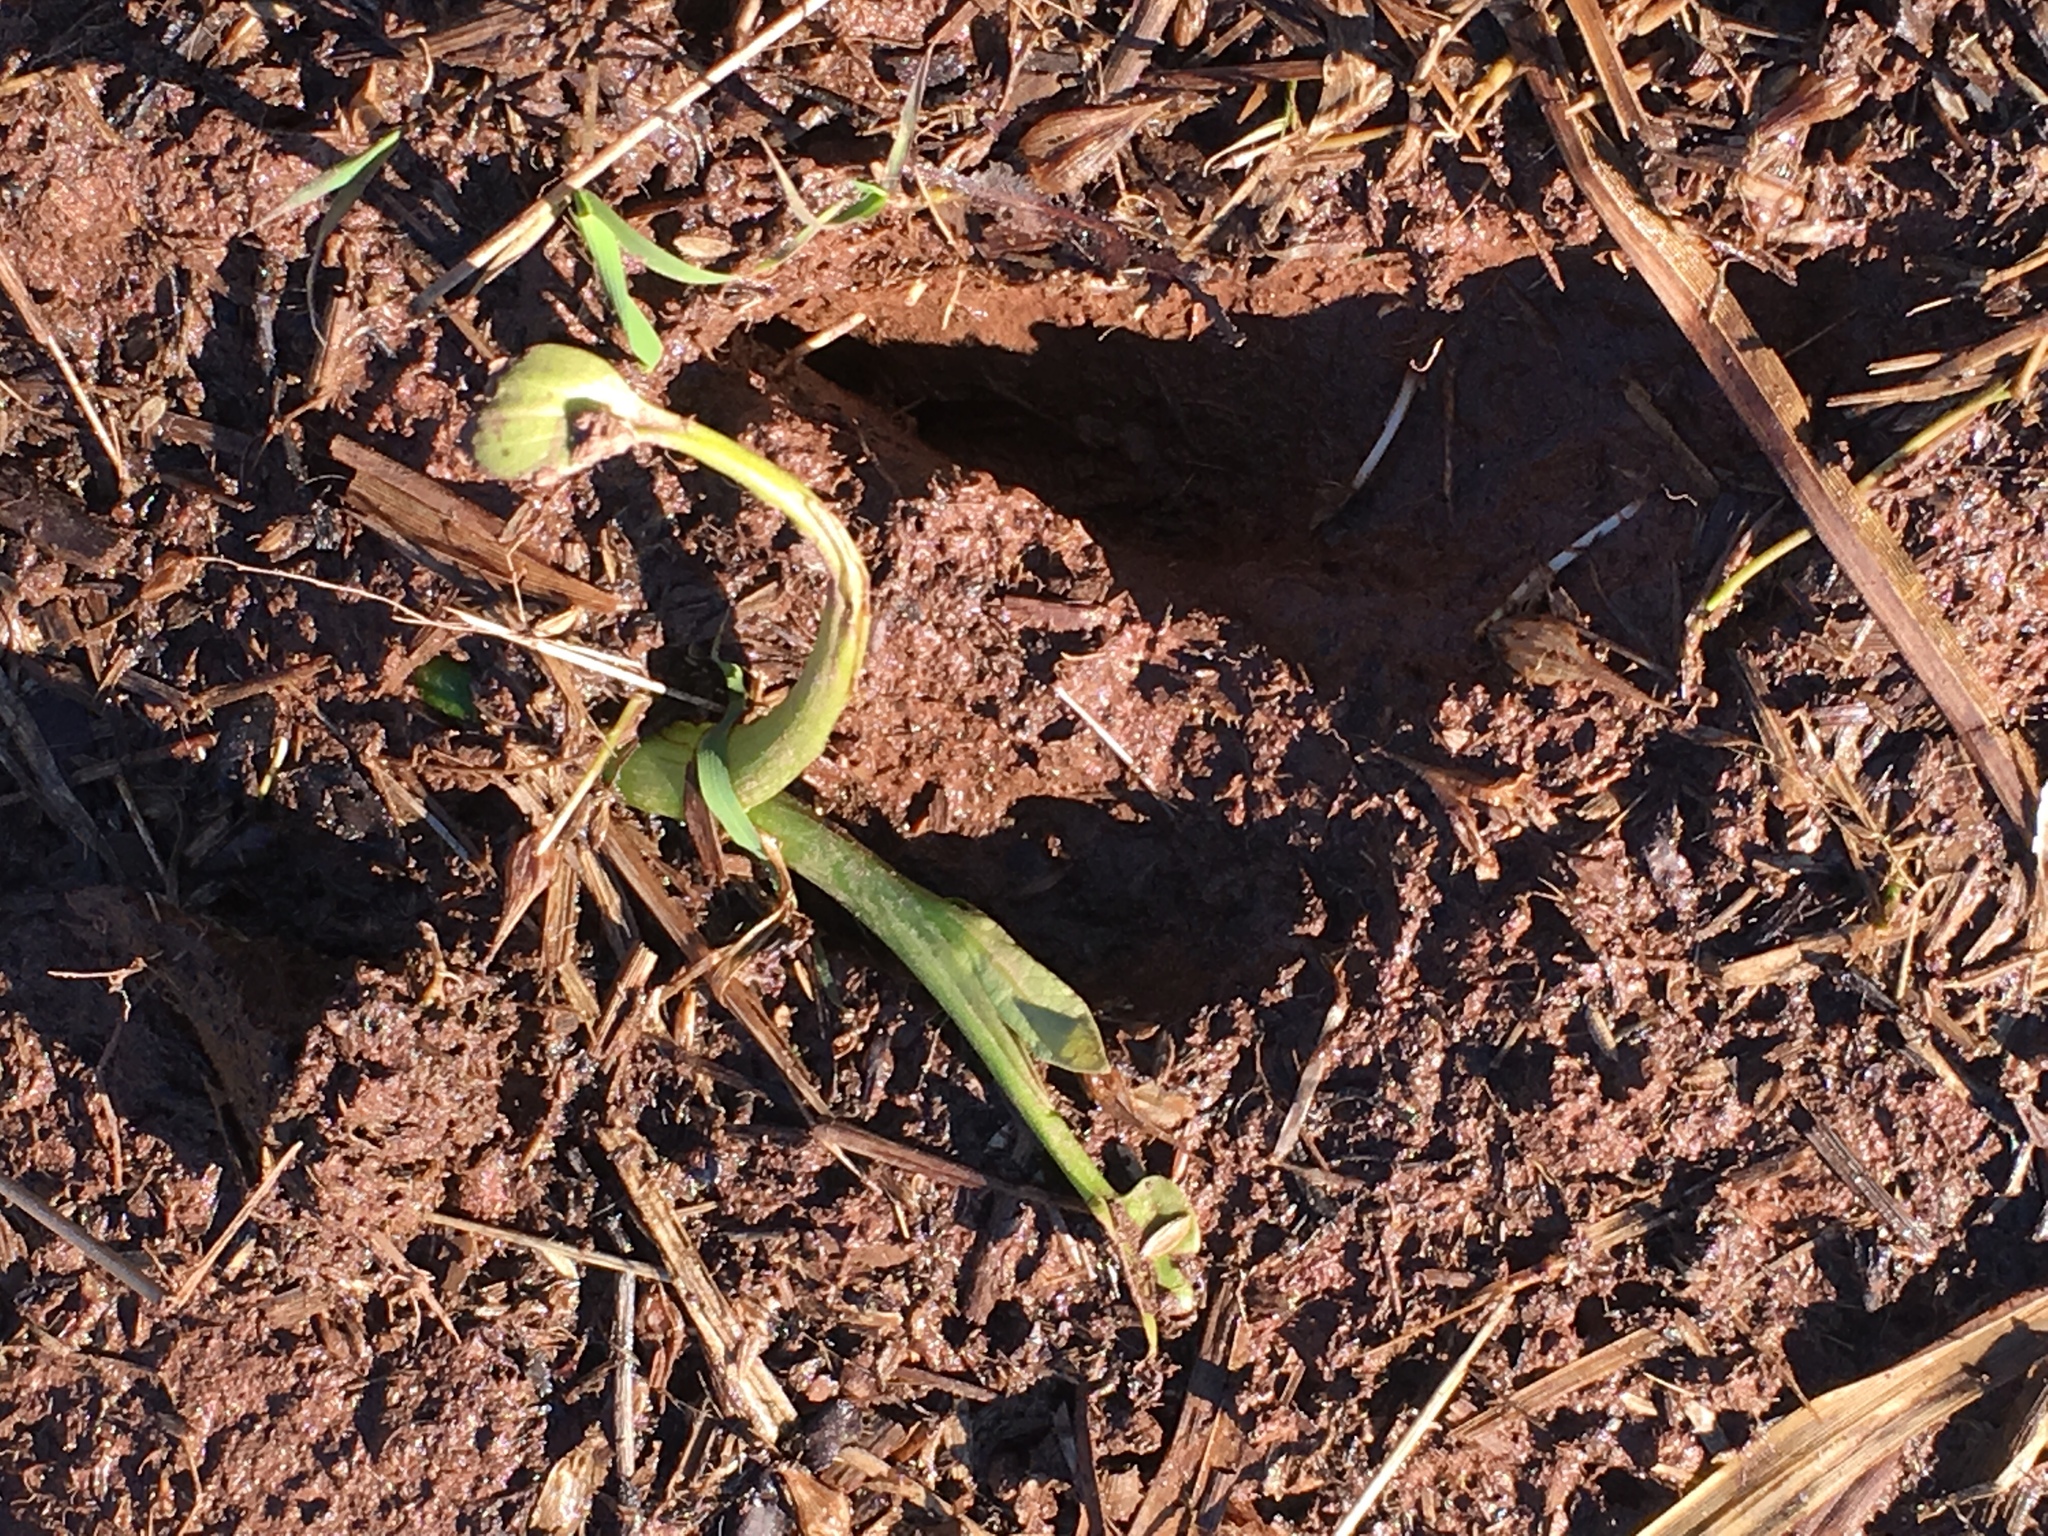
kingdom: Animalia
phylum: Chordata
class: Mammalia
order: Artiodactyla
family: Cervidae
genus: Odocoileus
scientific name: Odocoileus virginianus
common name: White-tailed deer
